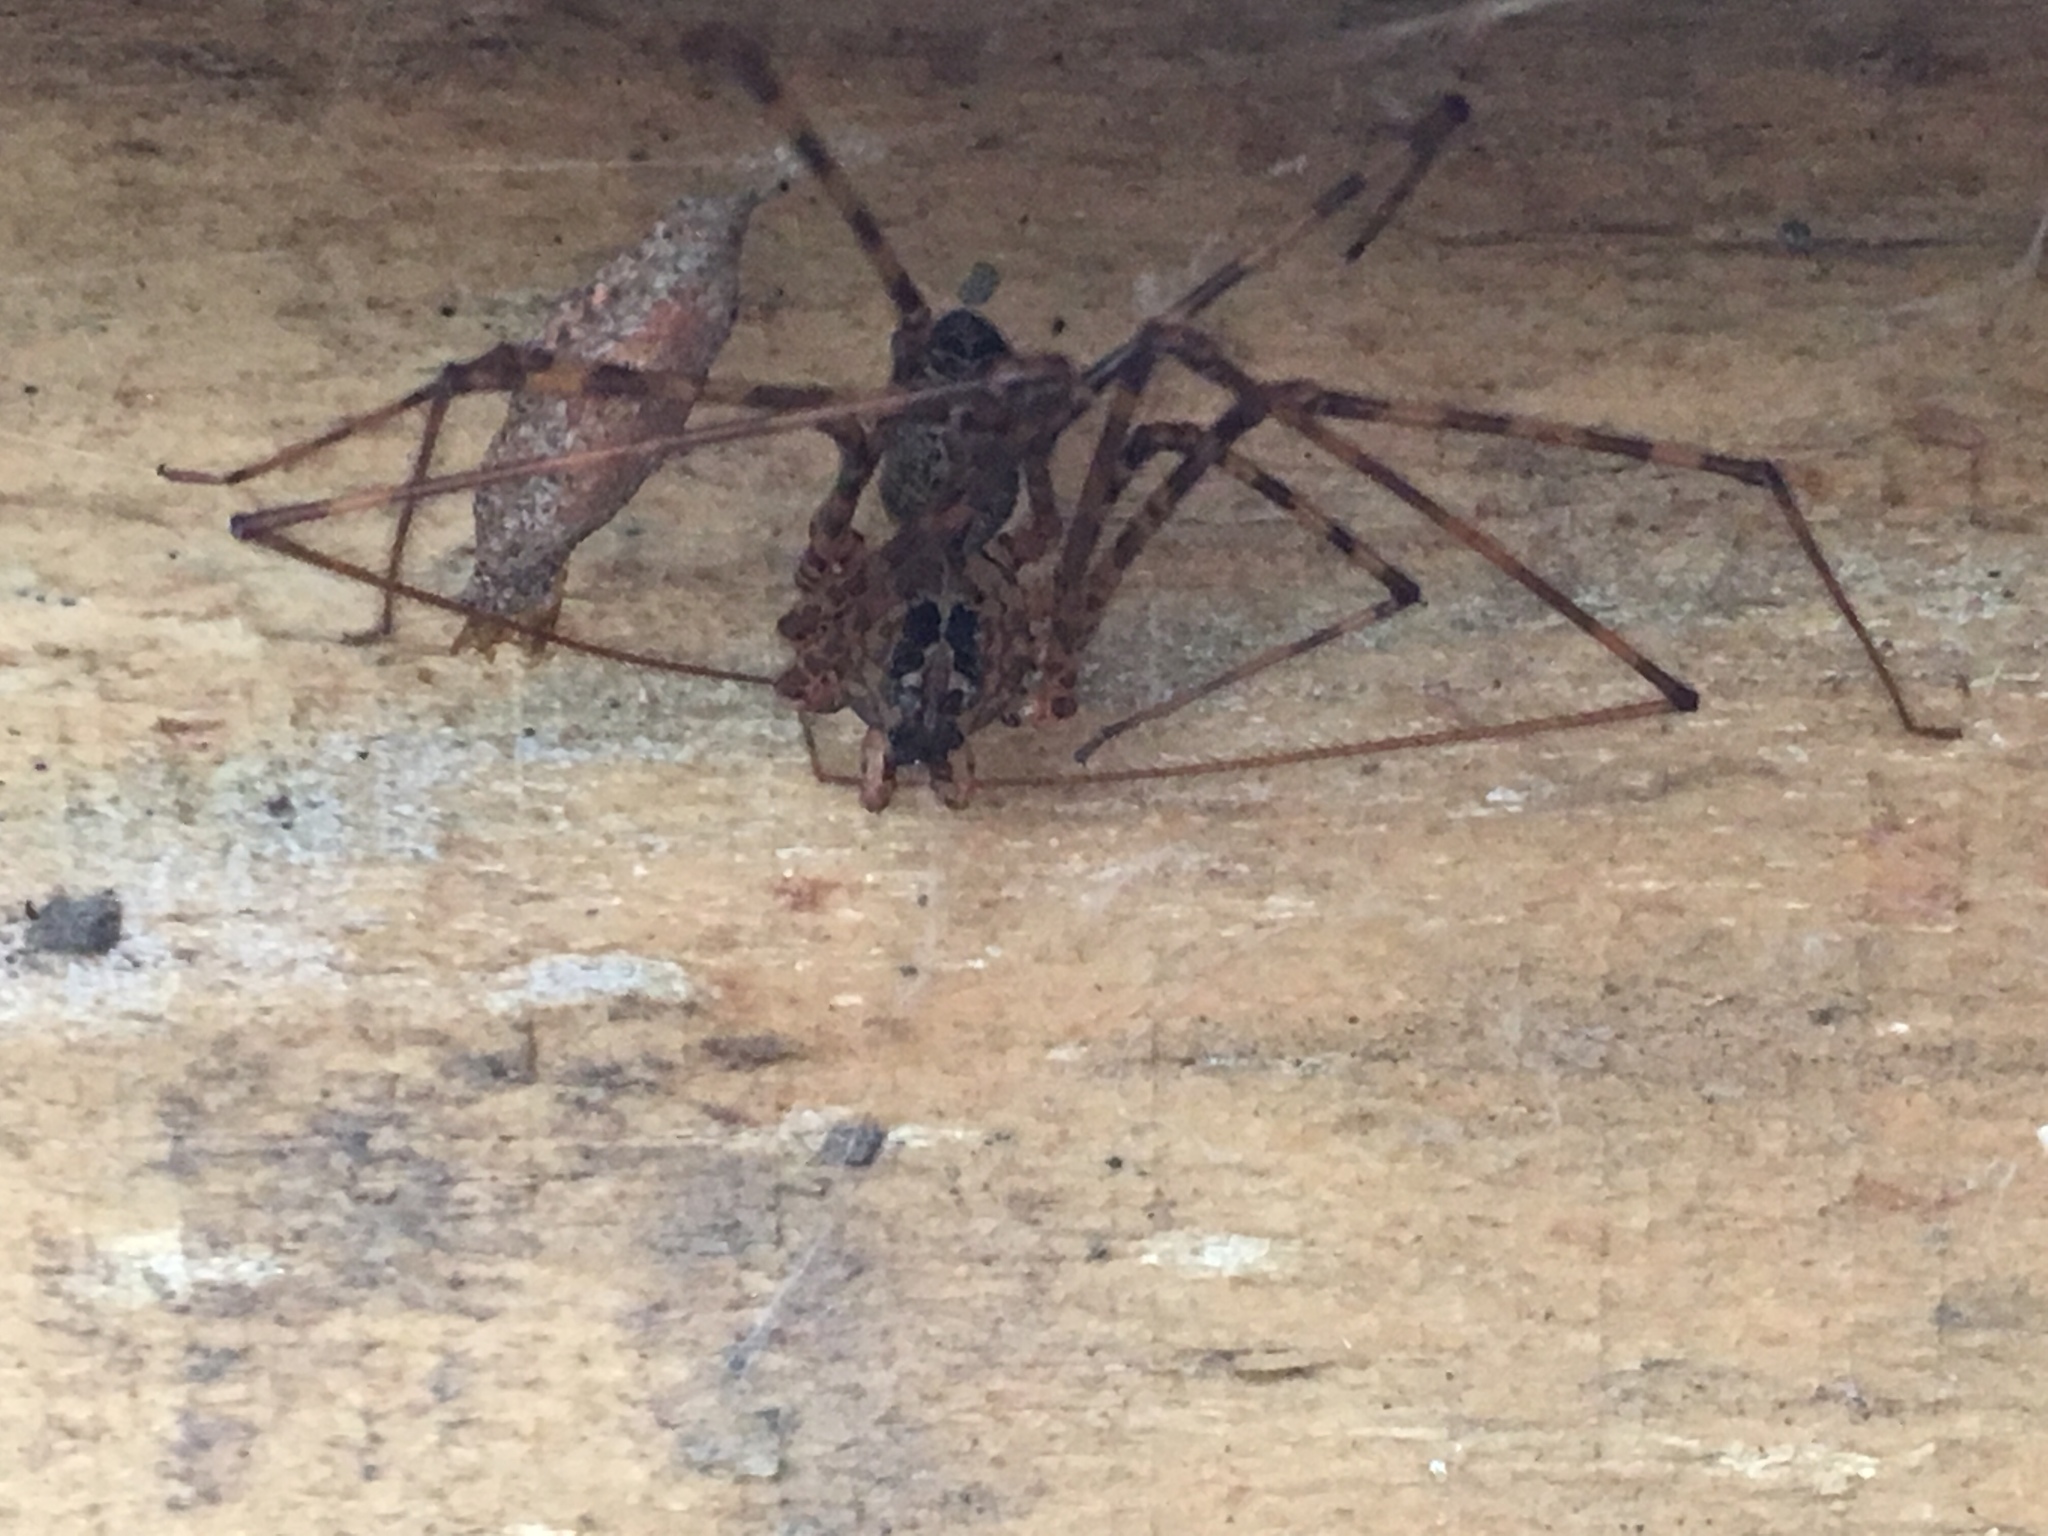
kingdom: Animalia
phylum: Arthropoda
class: Arachnida
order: Araneae
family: Scytodidae
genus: Scytodes
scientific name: Scytodes globula
